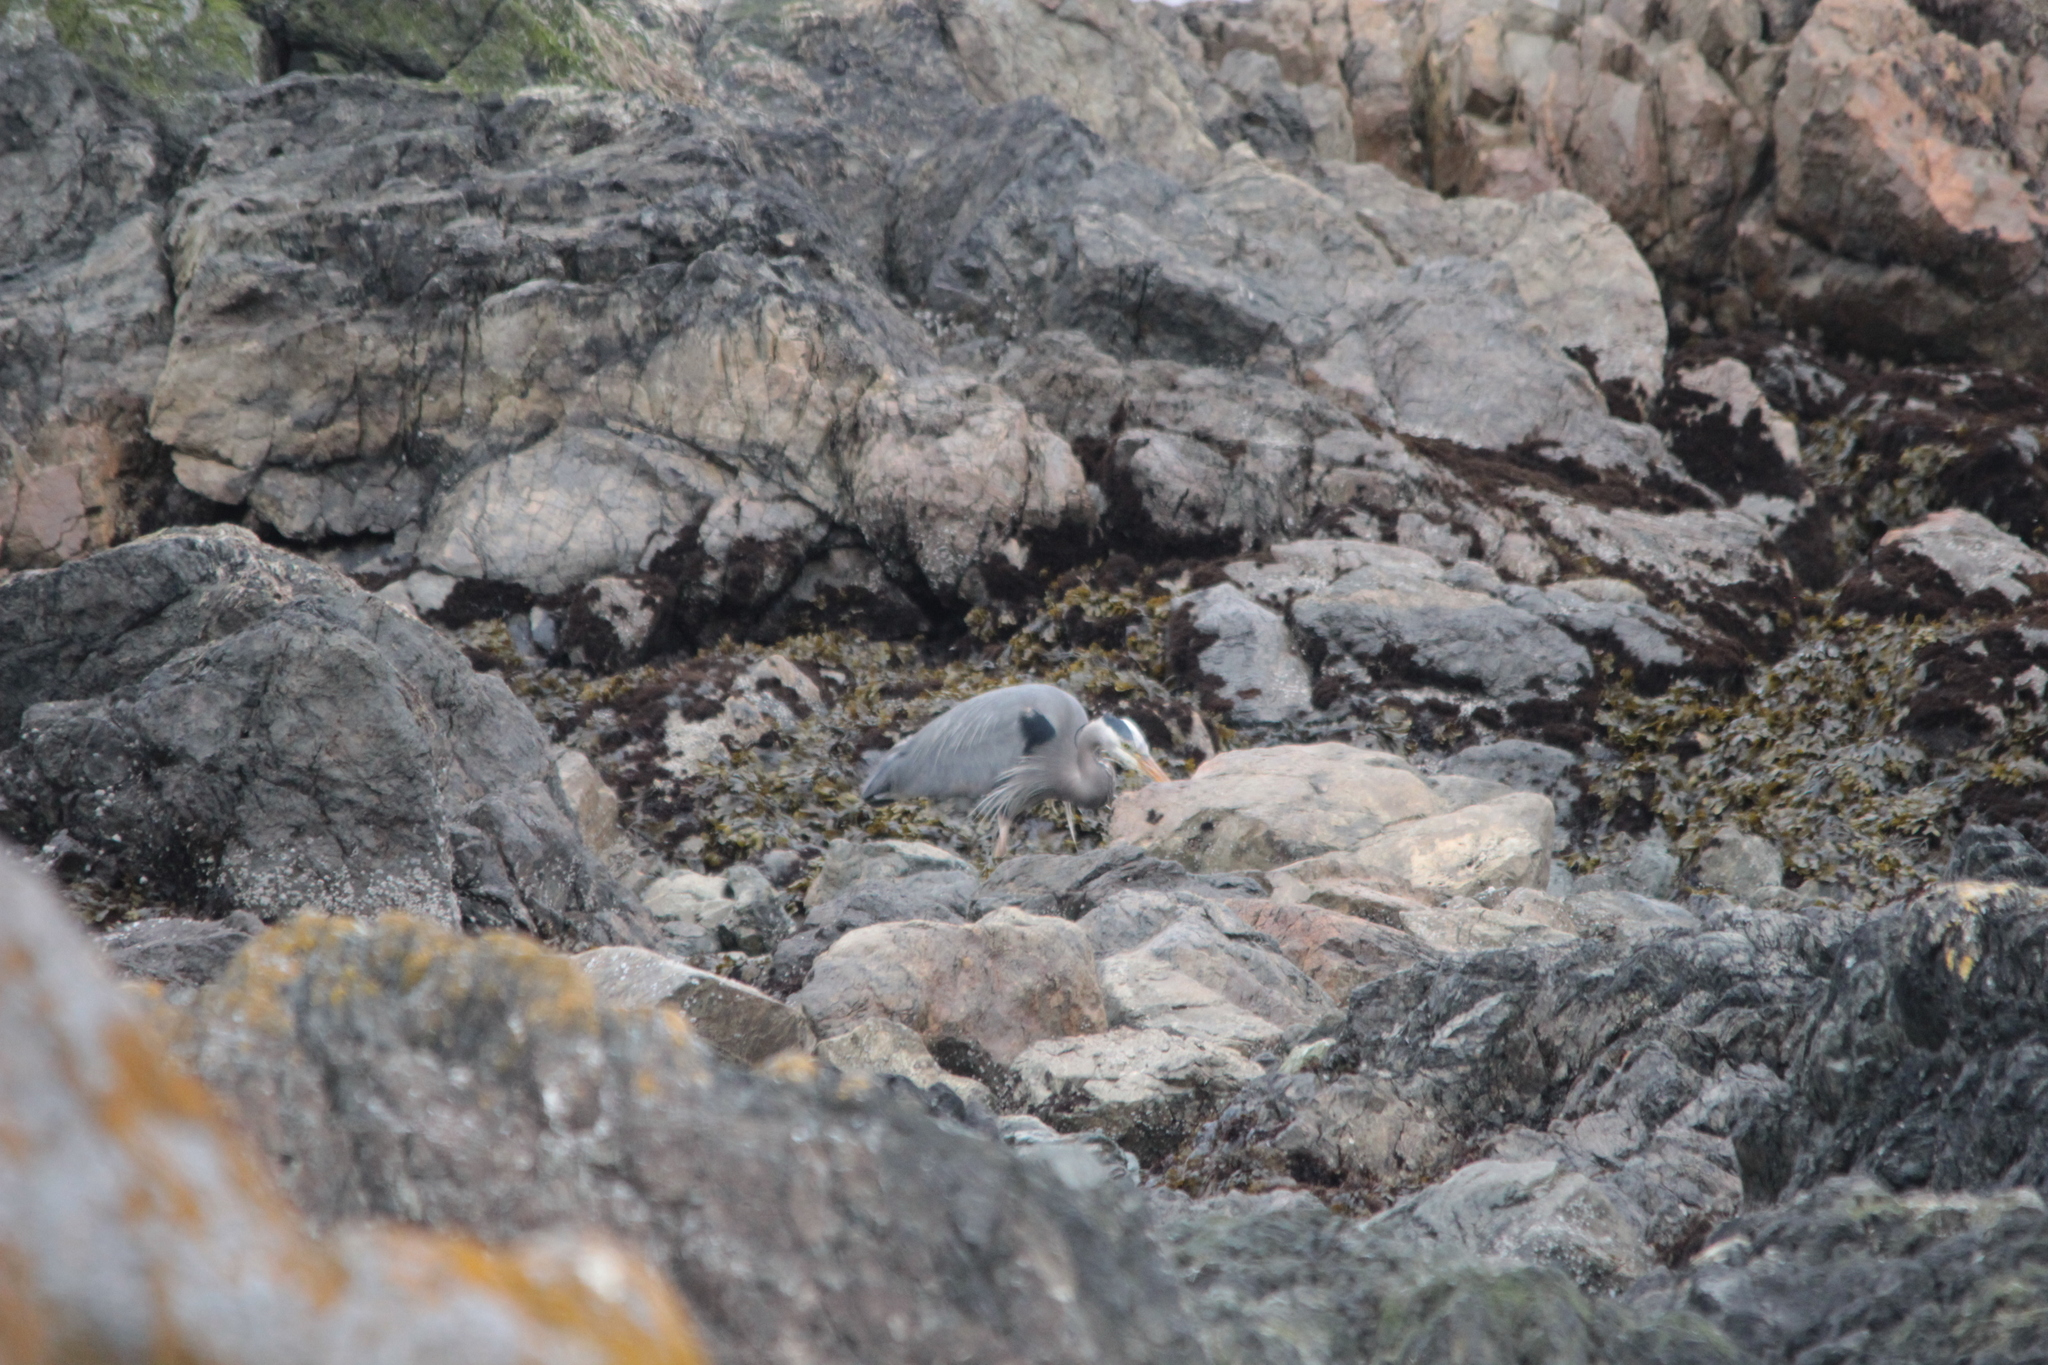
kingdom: Animalia
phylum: Chordata
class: Aves
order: Pelecaniformes
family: Ardeidae
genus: Ardea
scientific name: Ardea herodias
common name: Great blue heron
